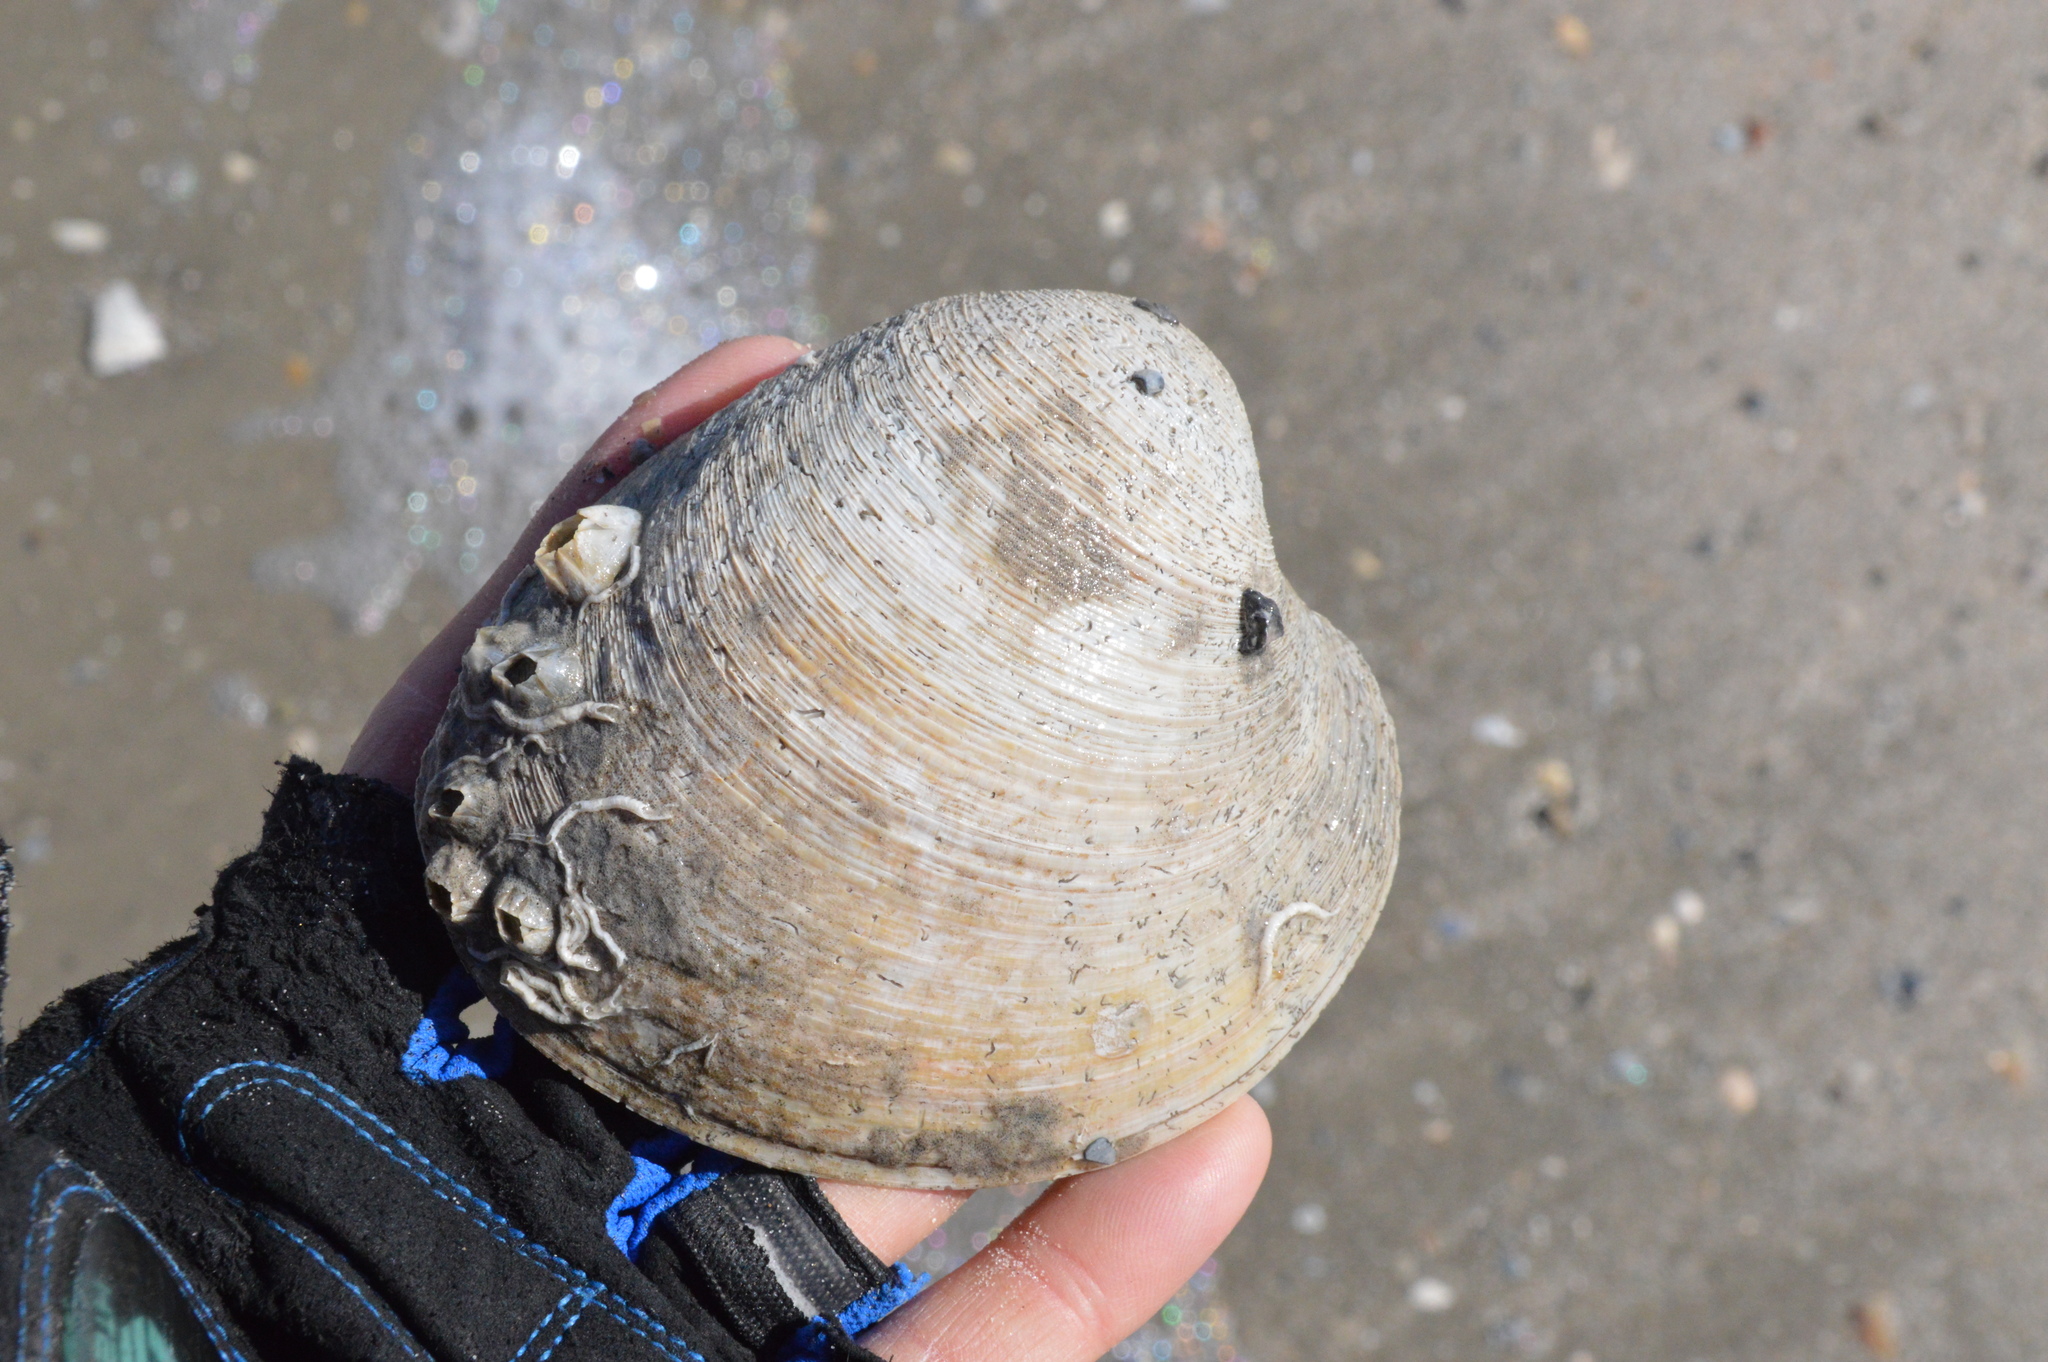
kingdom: Animalia
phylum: Mollusca
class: Bivalvia
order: Venerida
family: Veneridae
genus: Mercenaria
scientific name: Mercenaria campechiensis
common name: Südliche quahog-muschel
